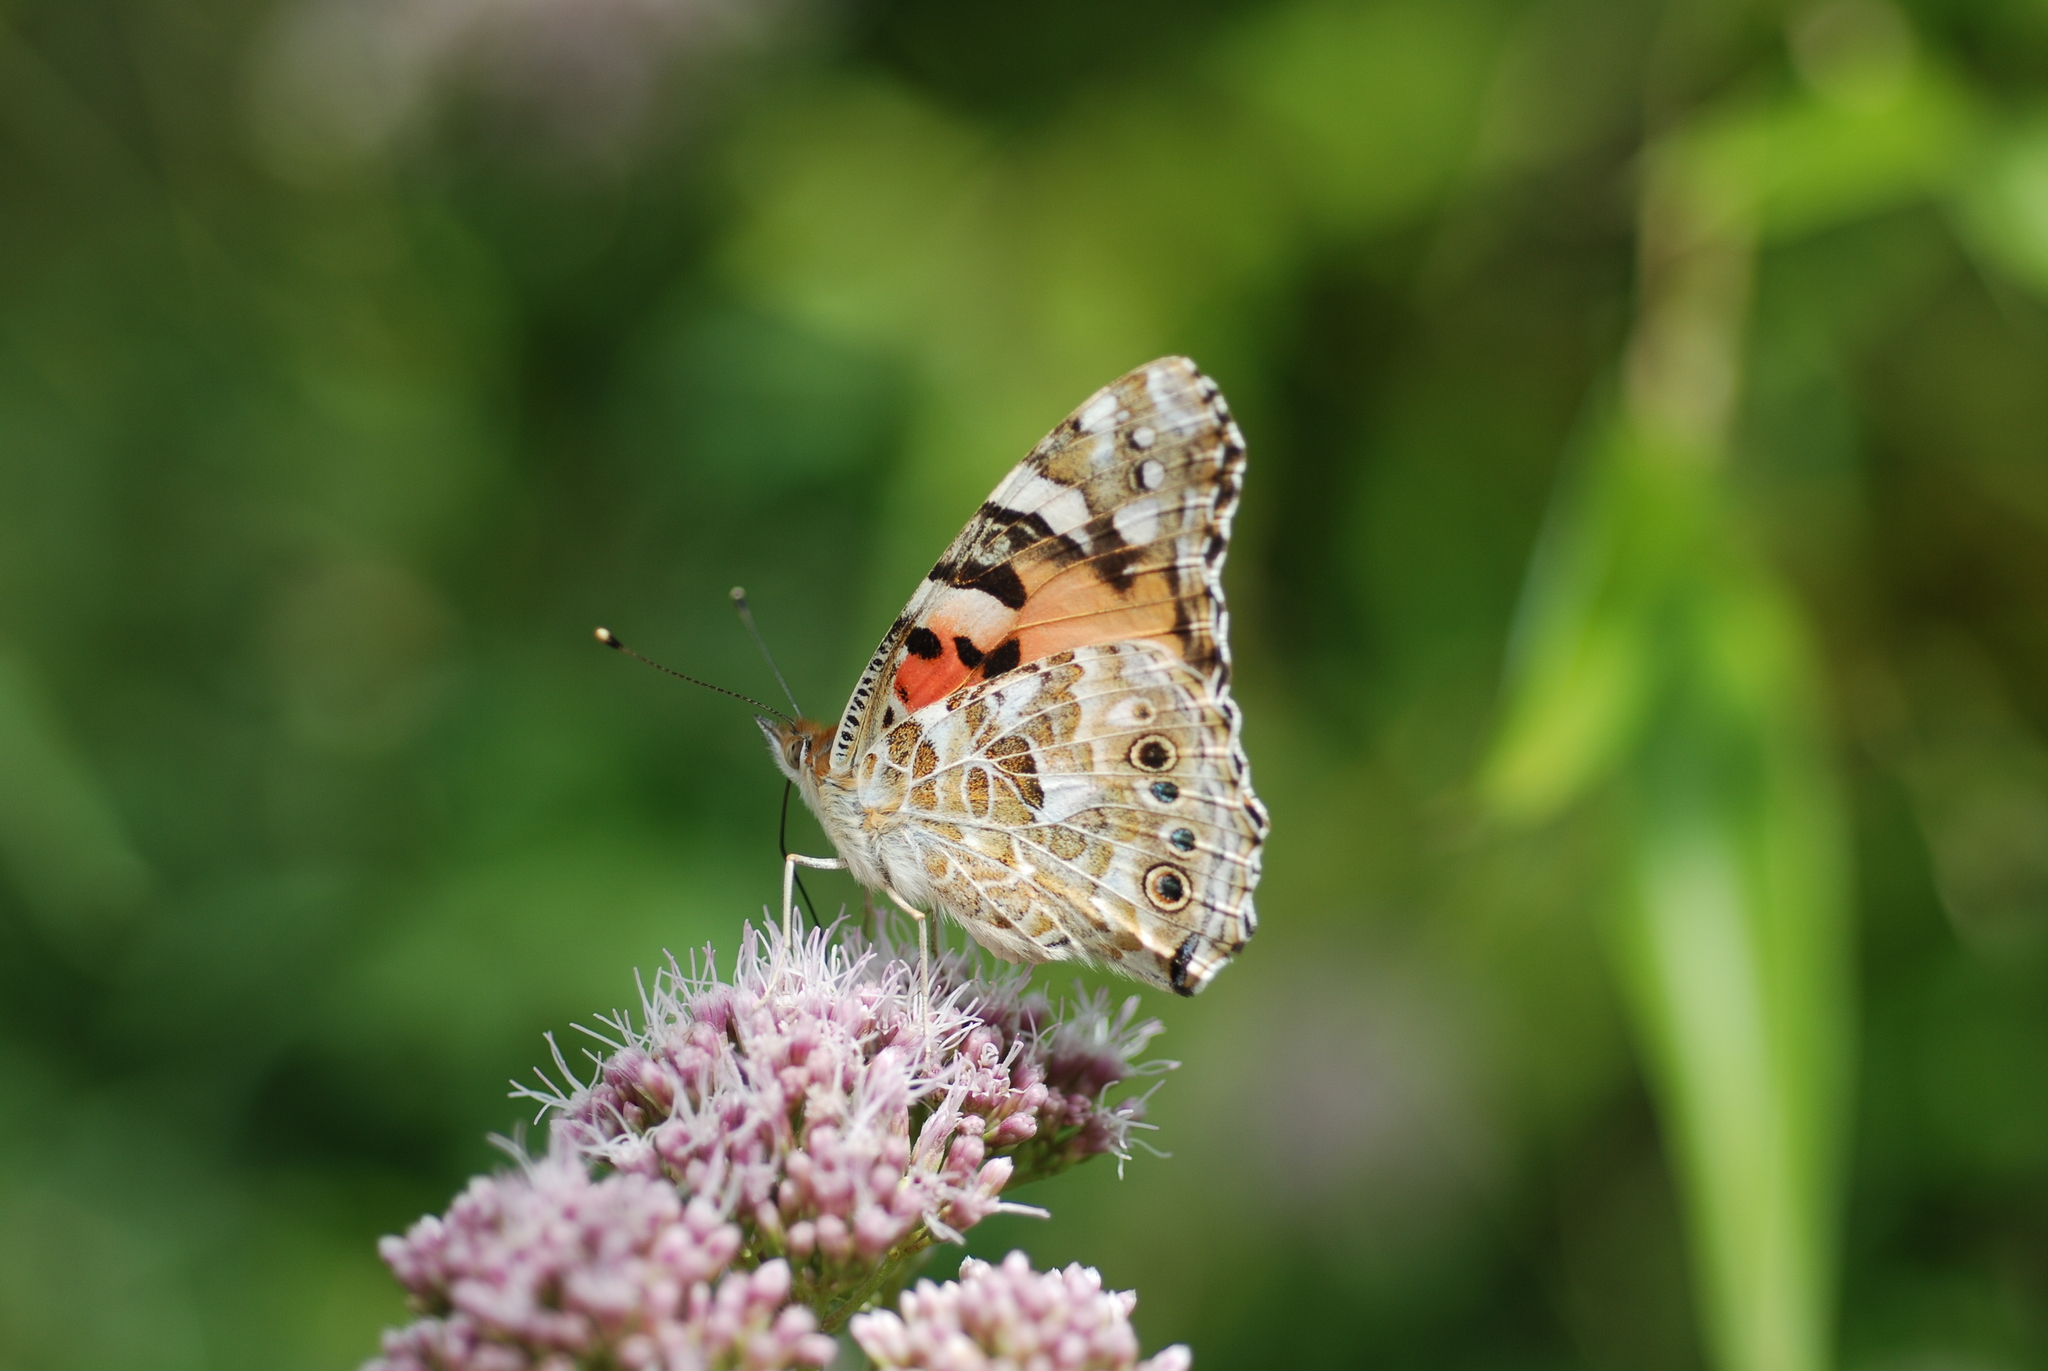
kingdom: Animalia
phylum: Arthropoda
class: Insecta
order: Lepidoptera
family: Nymphalidae
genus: Vanessa
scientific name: Vanessa cardui
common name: Painted lady
